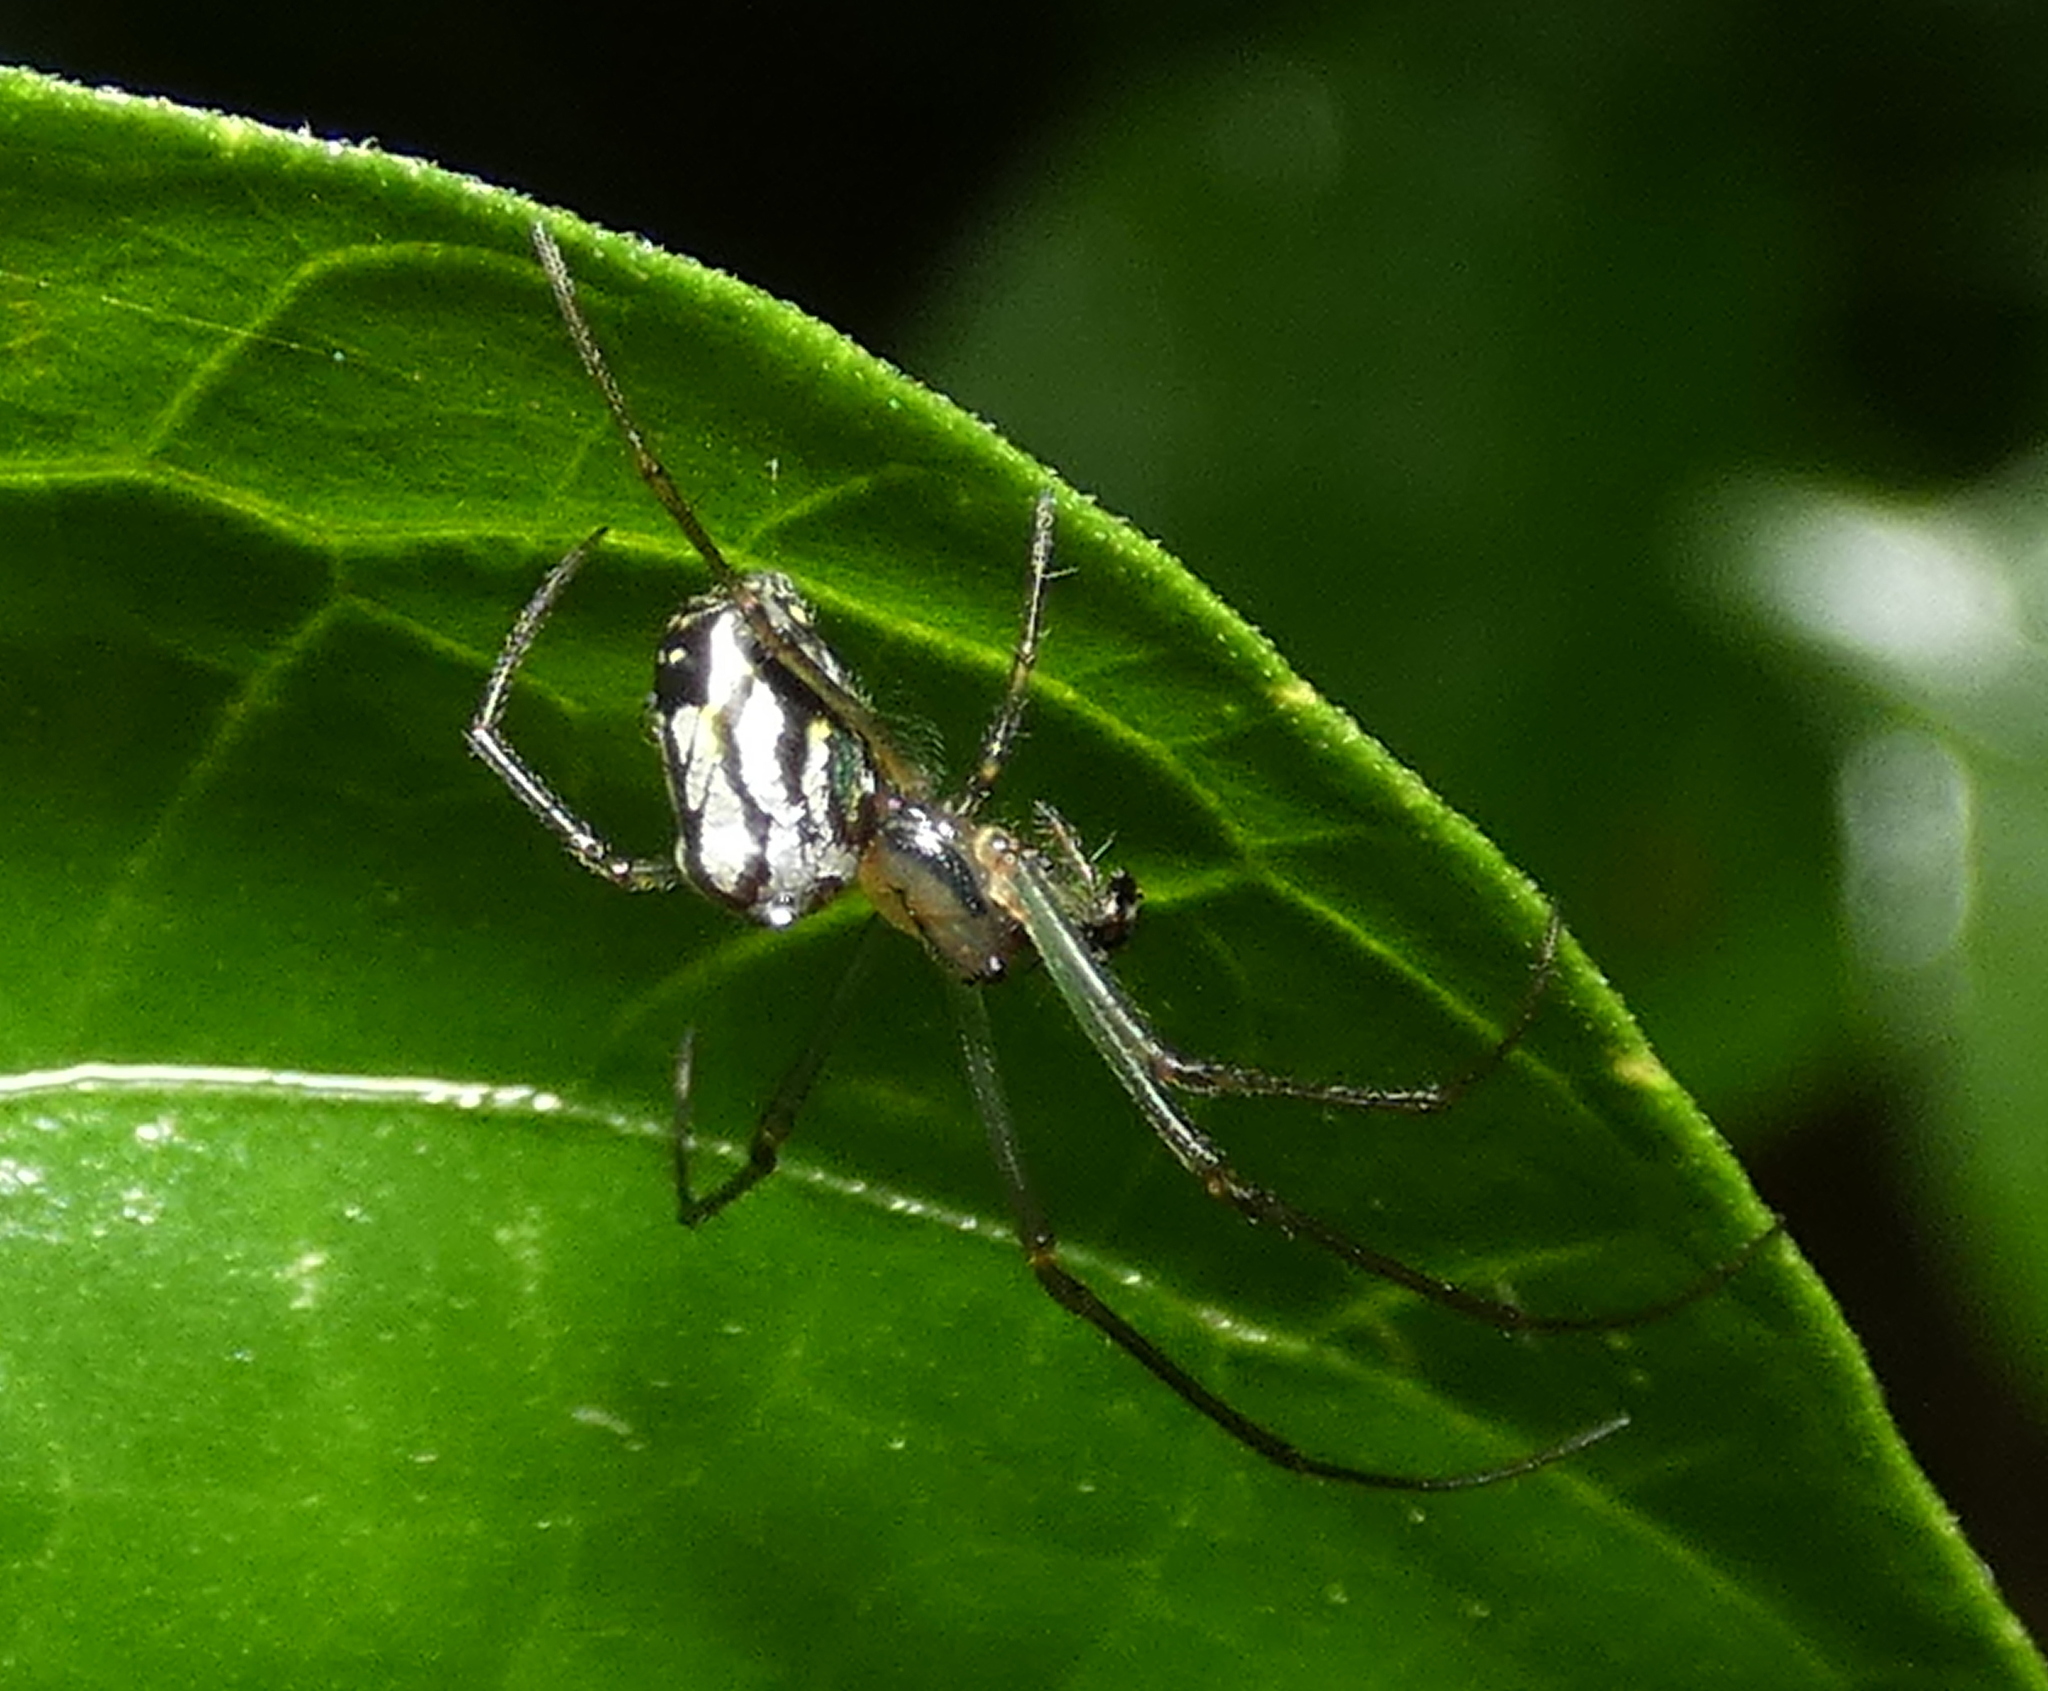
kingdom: Animalia
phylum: Arthropoda
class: Arachnida
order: Araneae
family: Tetragnathidae
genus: Leucauge
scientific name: Leucauge volupis
